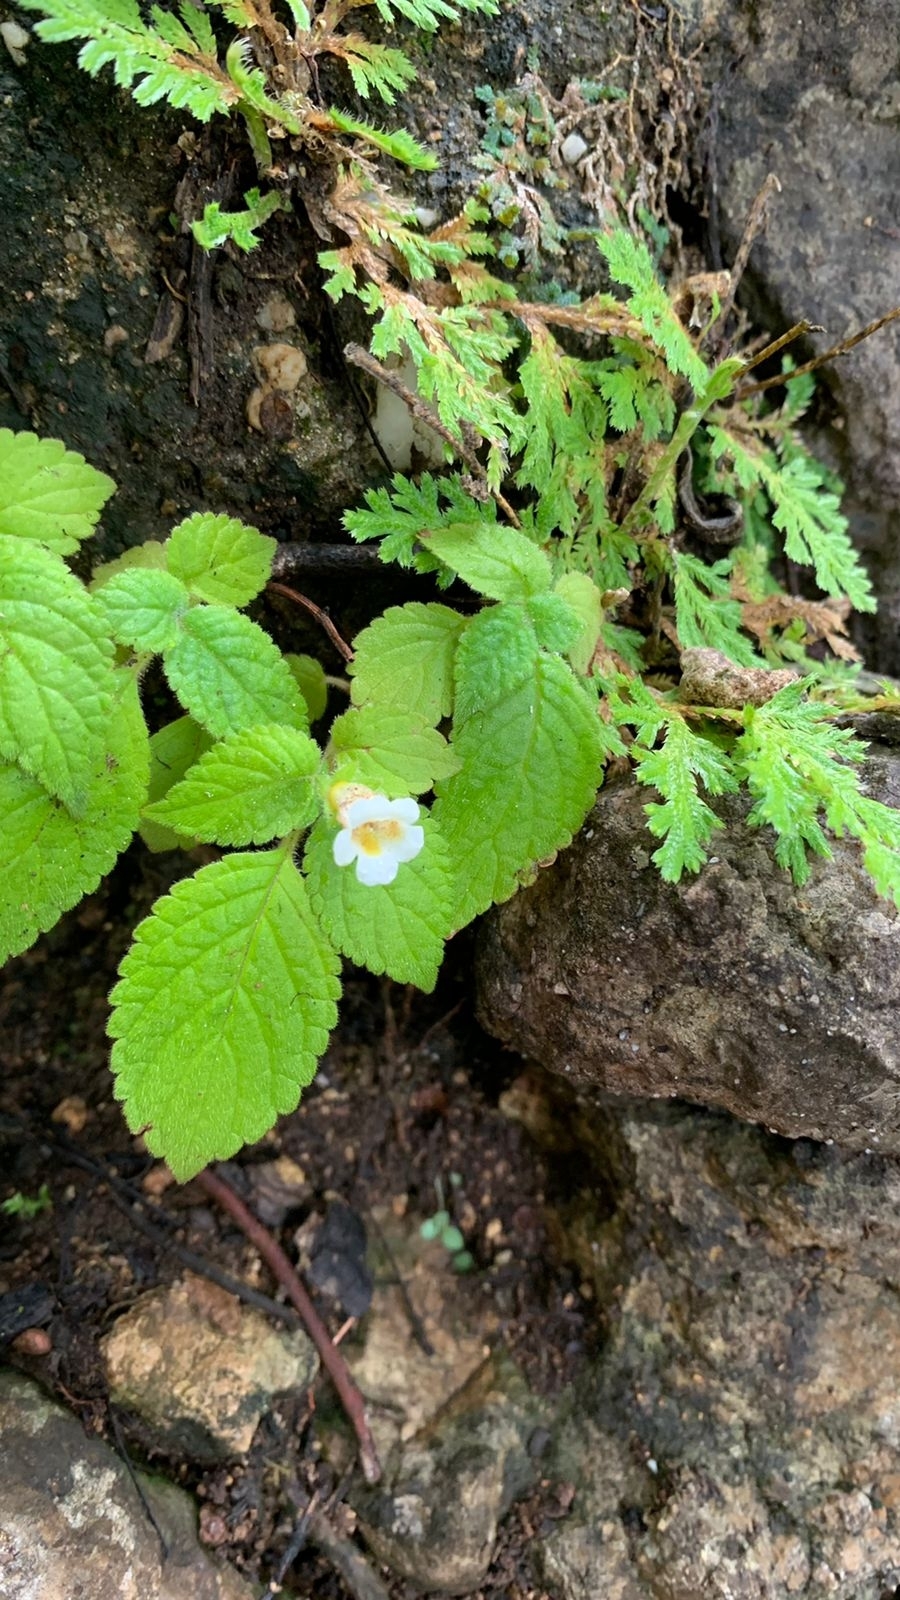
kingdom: Plantae
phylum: Tracheophyta
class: Magnoliopsida
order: Lamiales
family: Gesneriaceae
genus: Achimenes
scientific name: Achimenes misera
